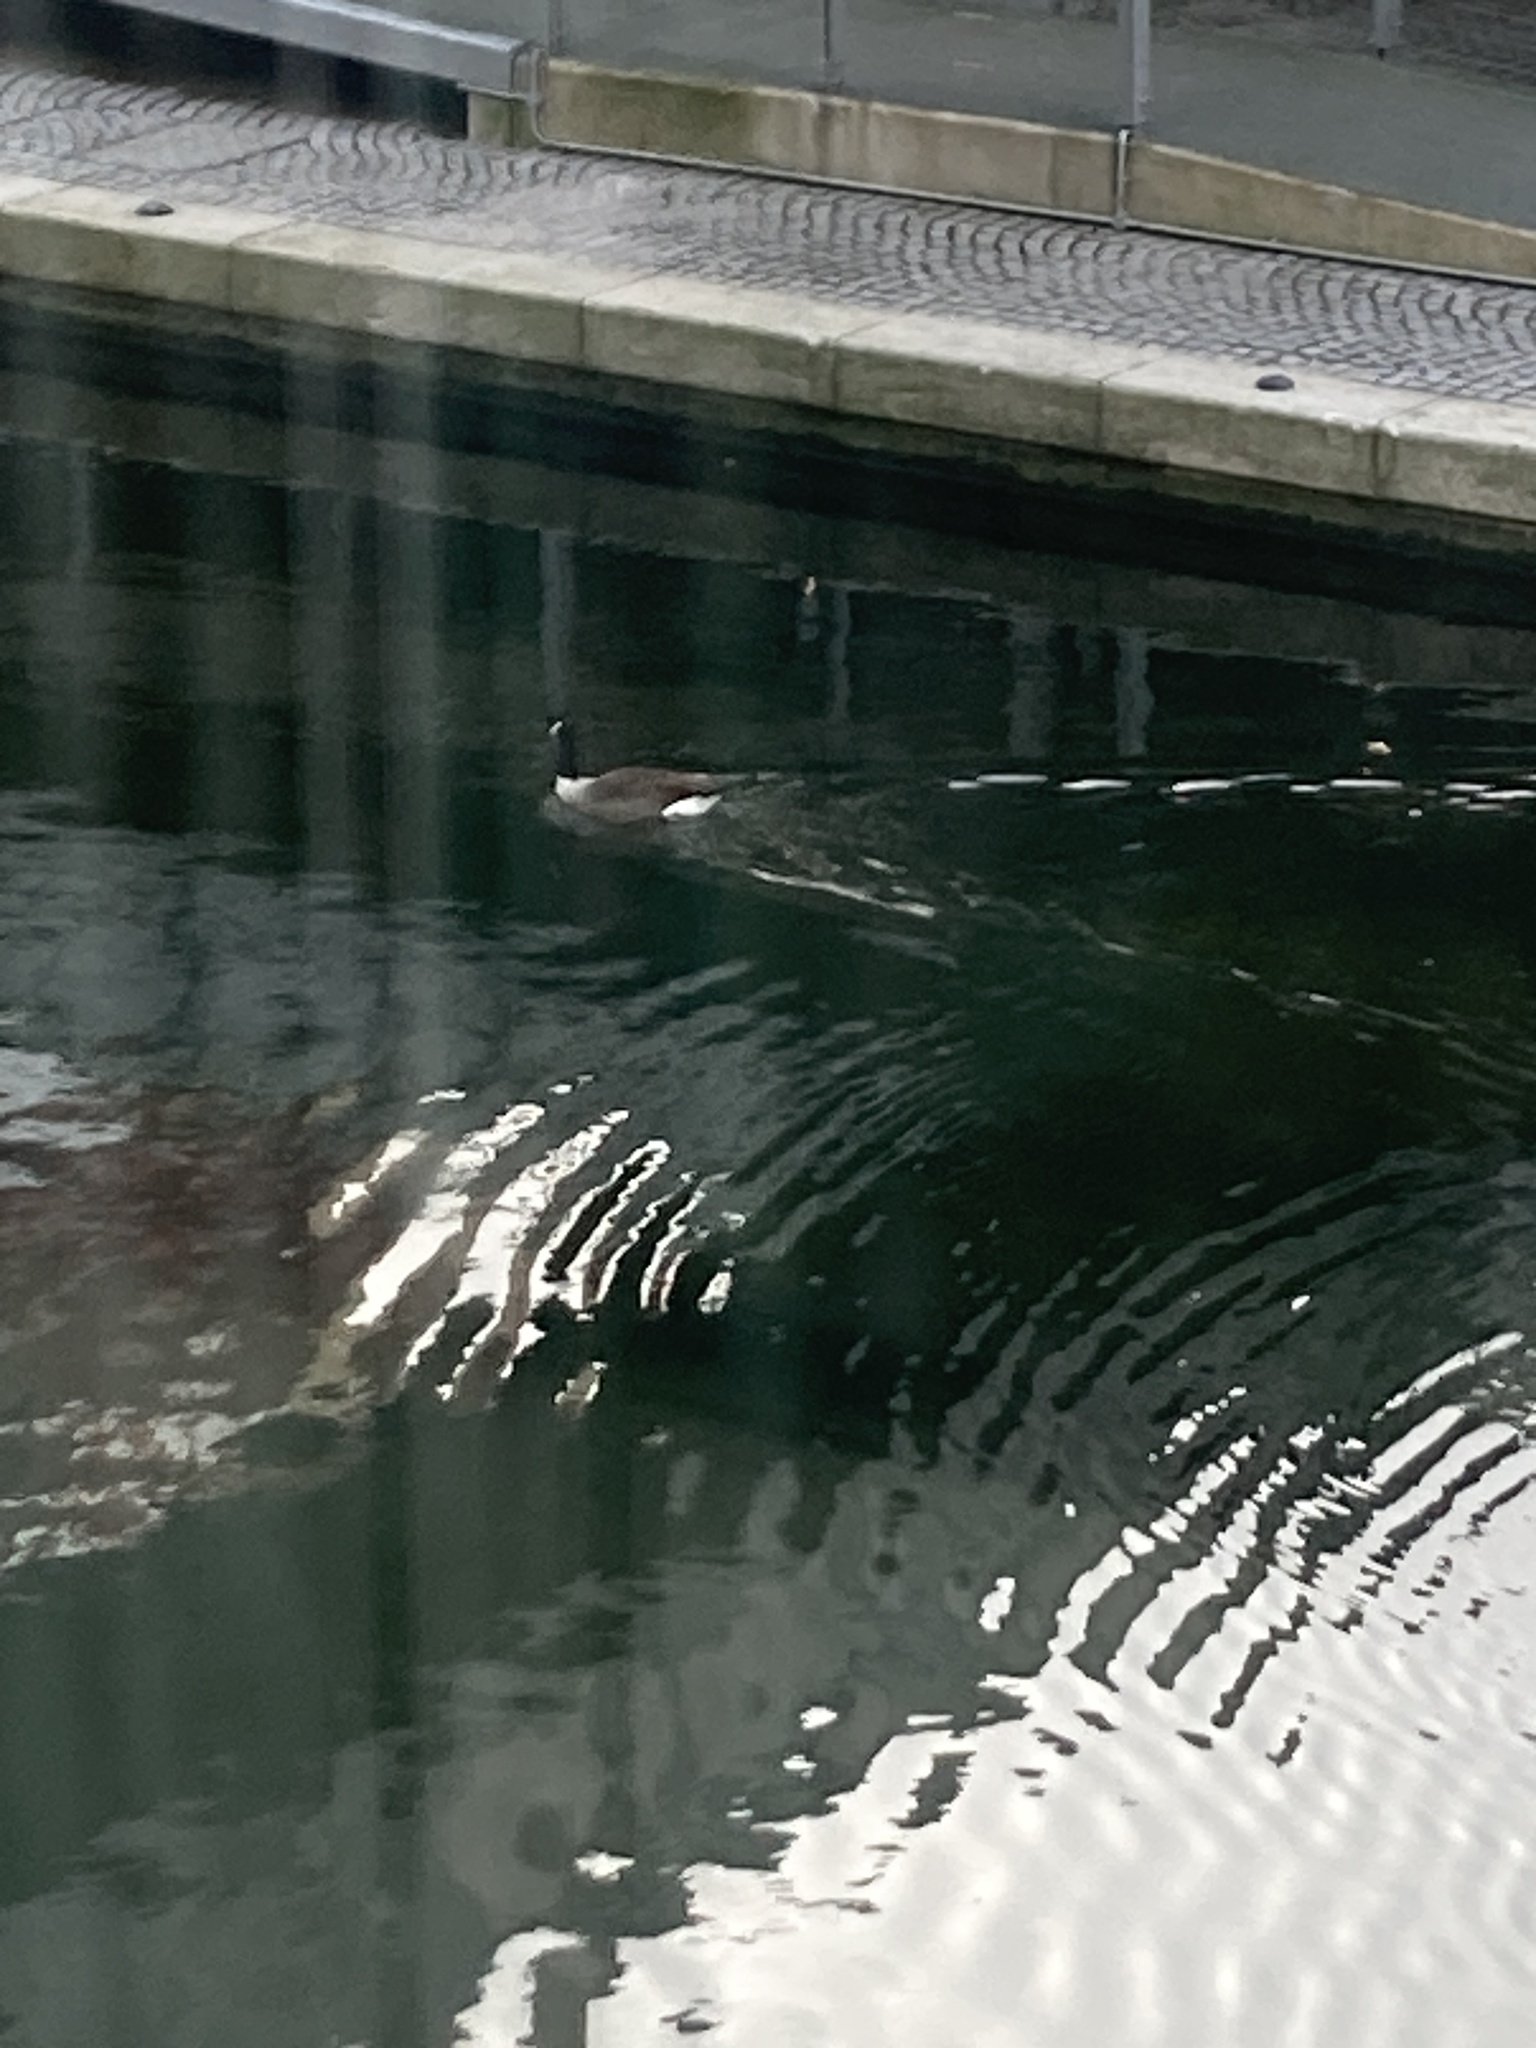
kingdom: Animalia
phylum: Chordata
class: Aves
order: Anseriformes
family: Anatidae
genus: Branta
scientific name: Branta canadensis
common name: Canada goose
